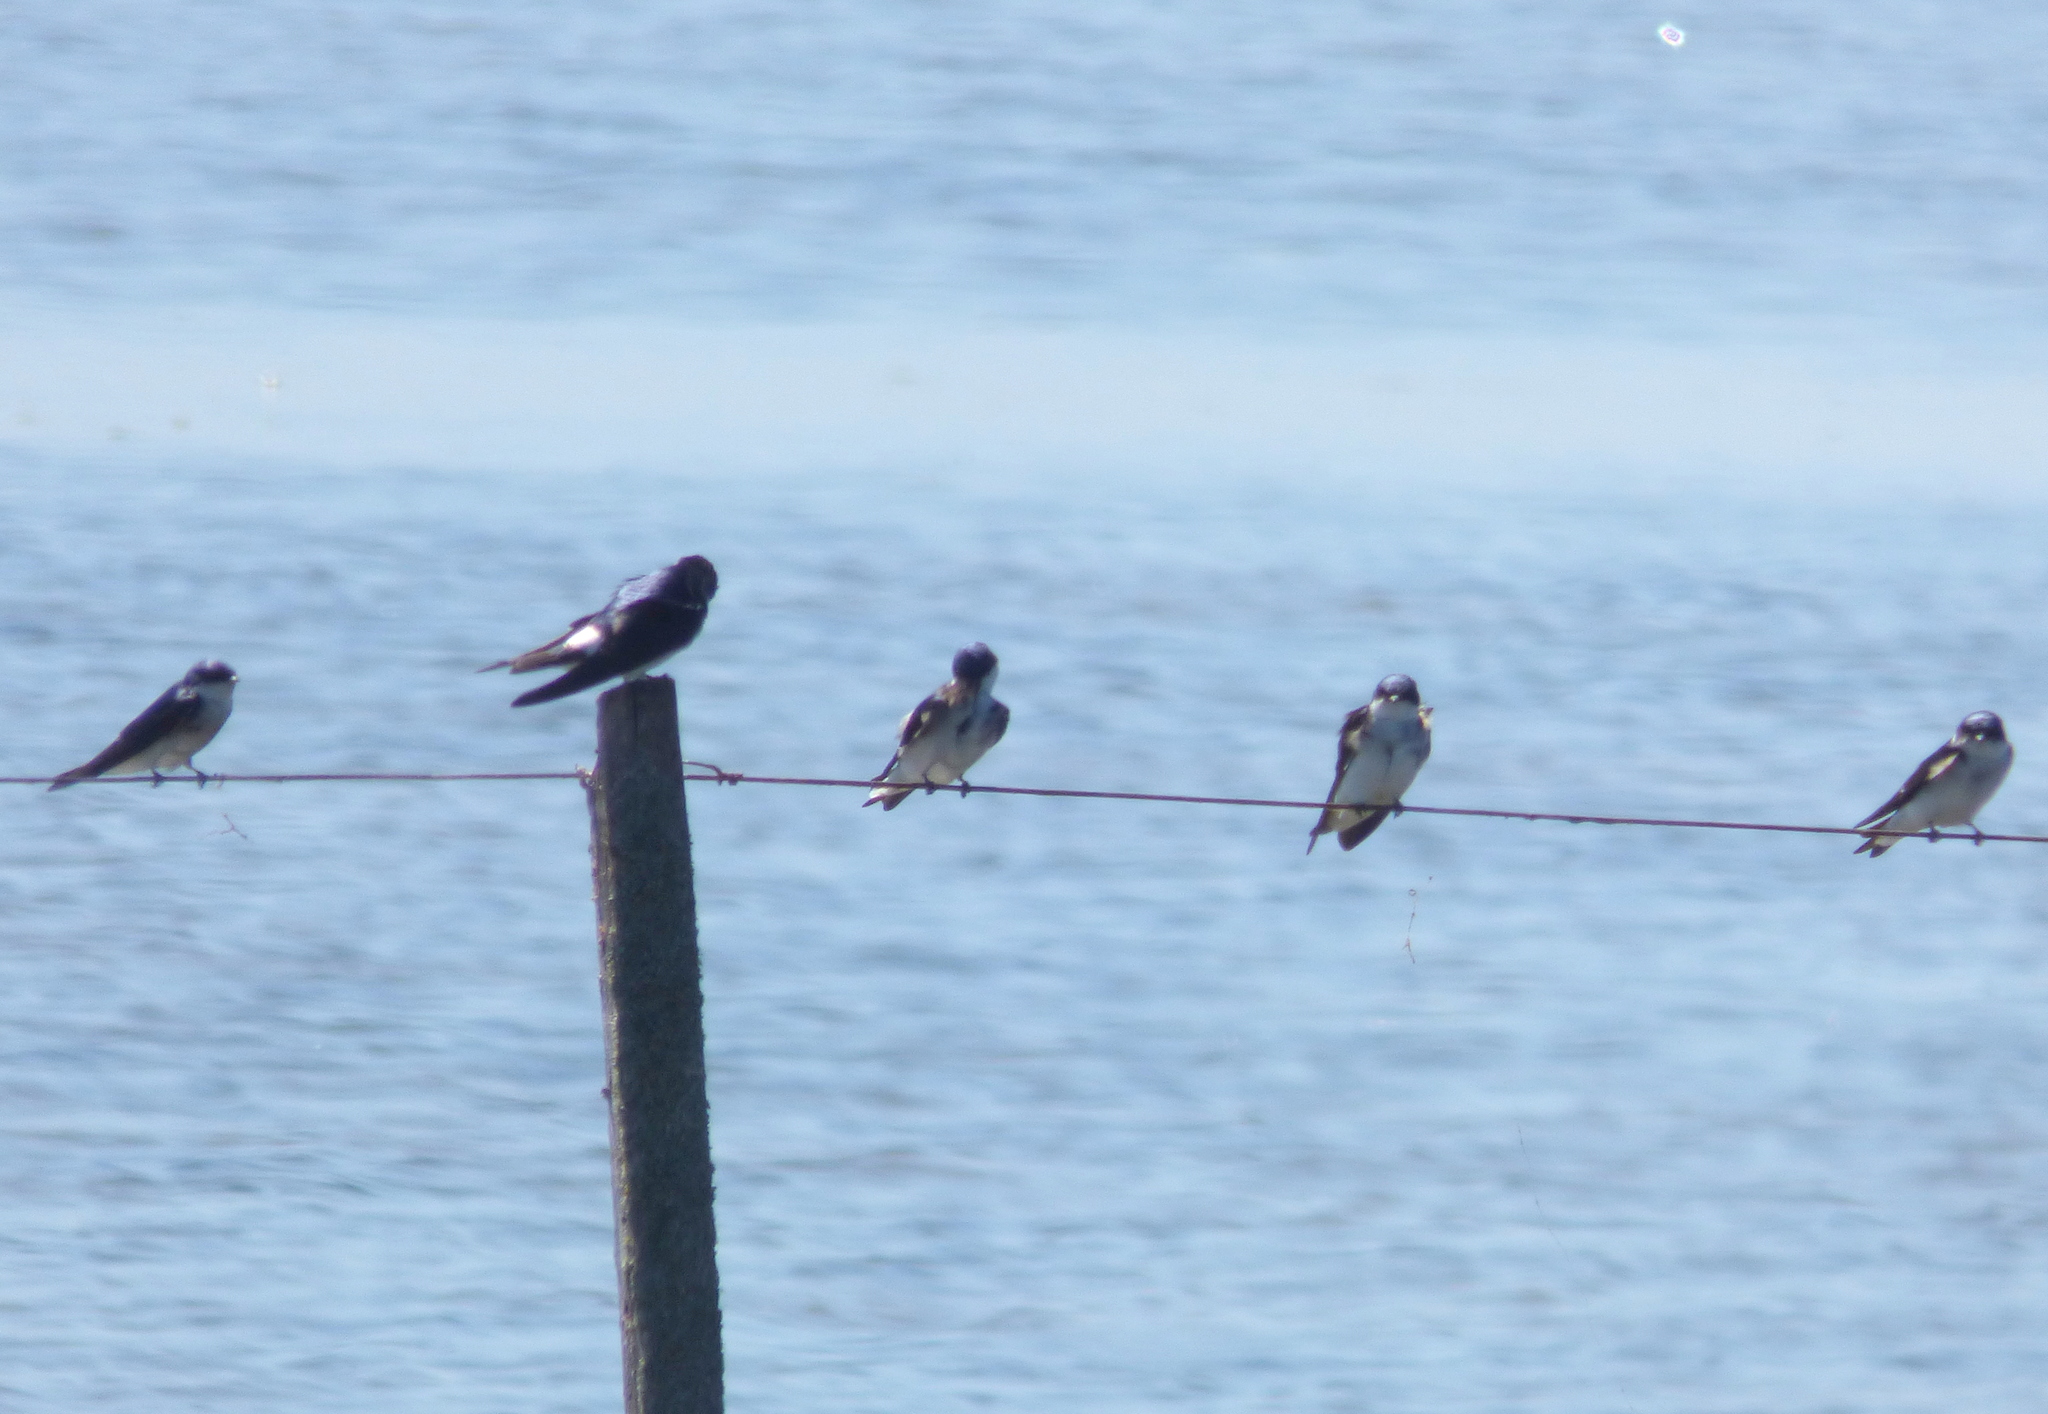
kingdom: Animalia
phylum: Chordata
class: Aves
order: Passeriformes
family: Hirundinidae
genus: Tachycineta
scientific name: Tachycineta leucopyga
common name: Chilean swallow
